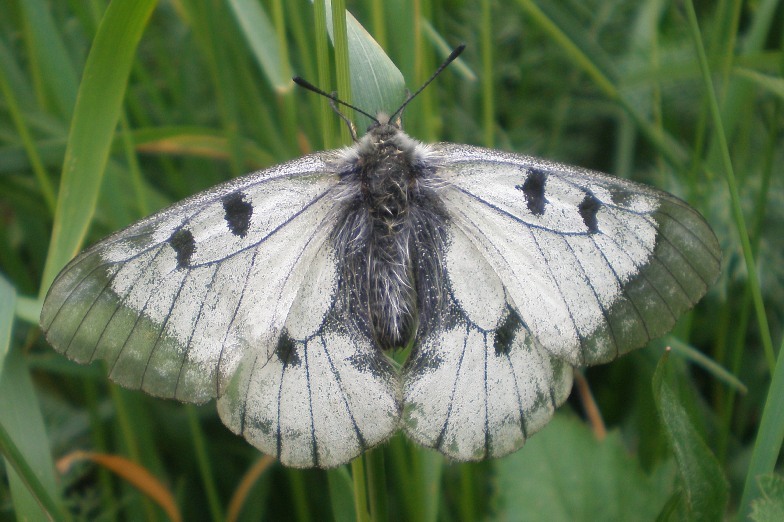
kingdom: Animalia
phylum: Arthropoda
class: Insecta
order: Lepidoptera
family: Papilionidae
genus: Parnassius
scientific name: Parnassius mnemosyne
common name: Clouded apollo
